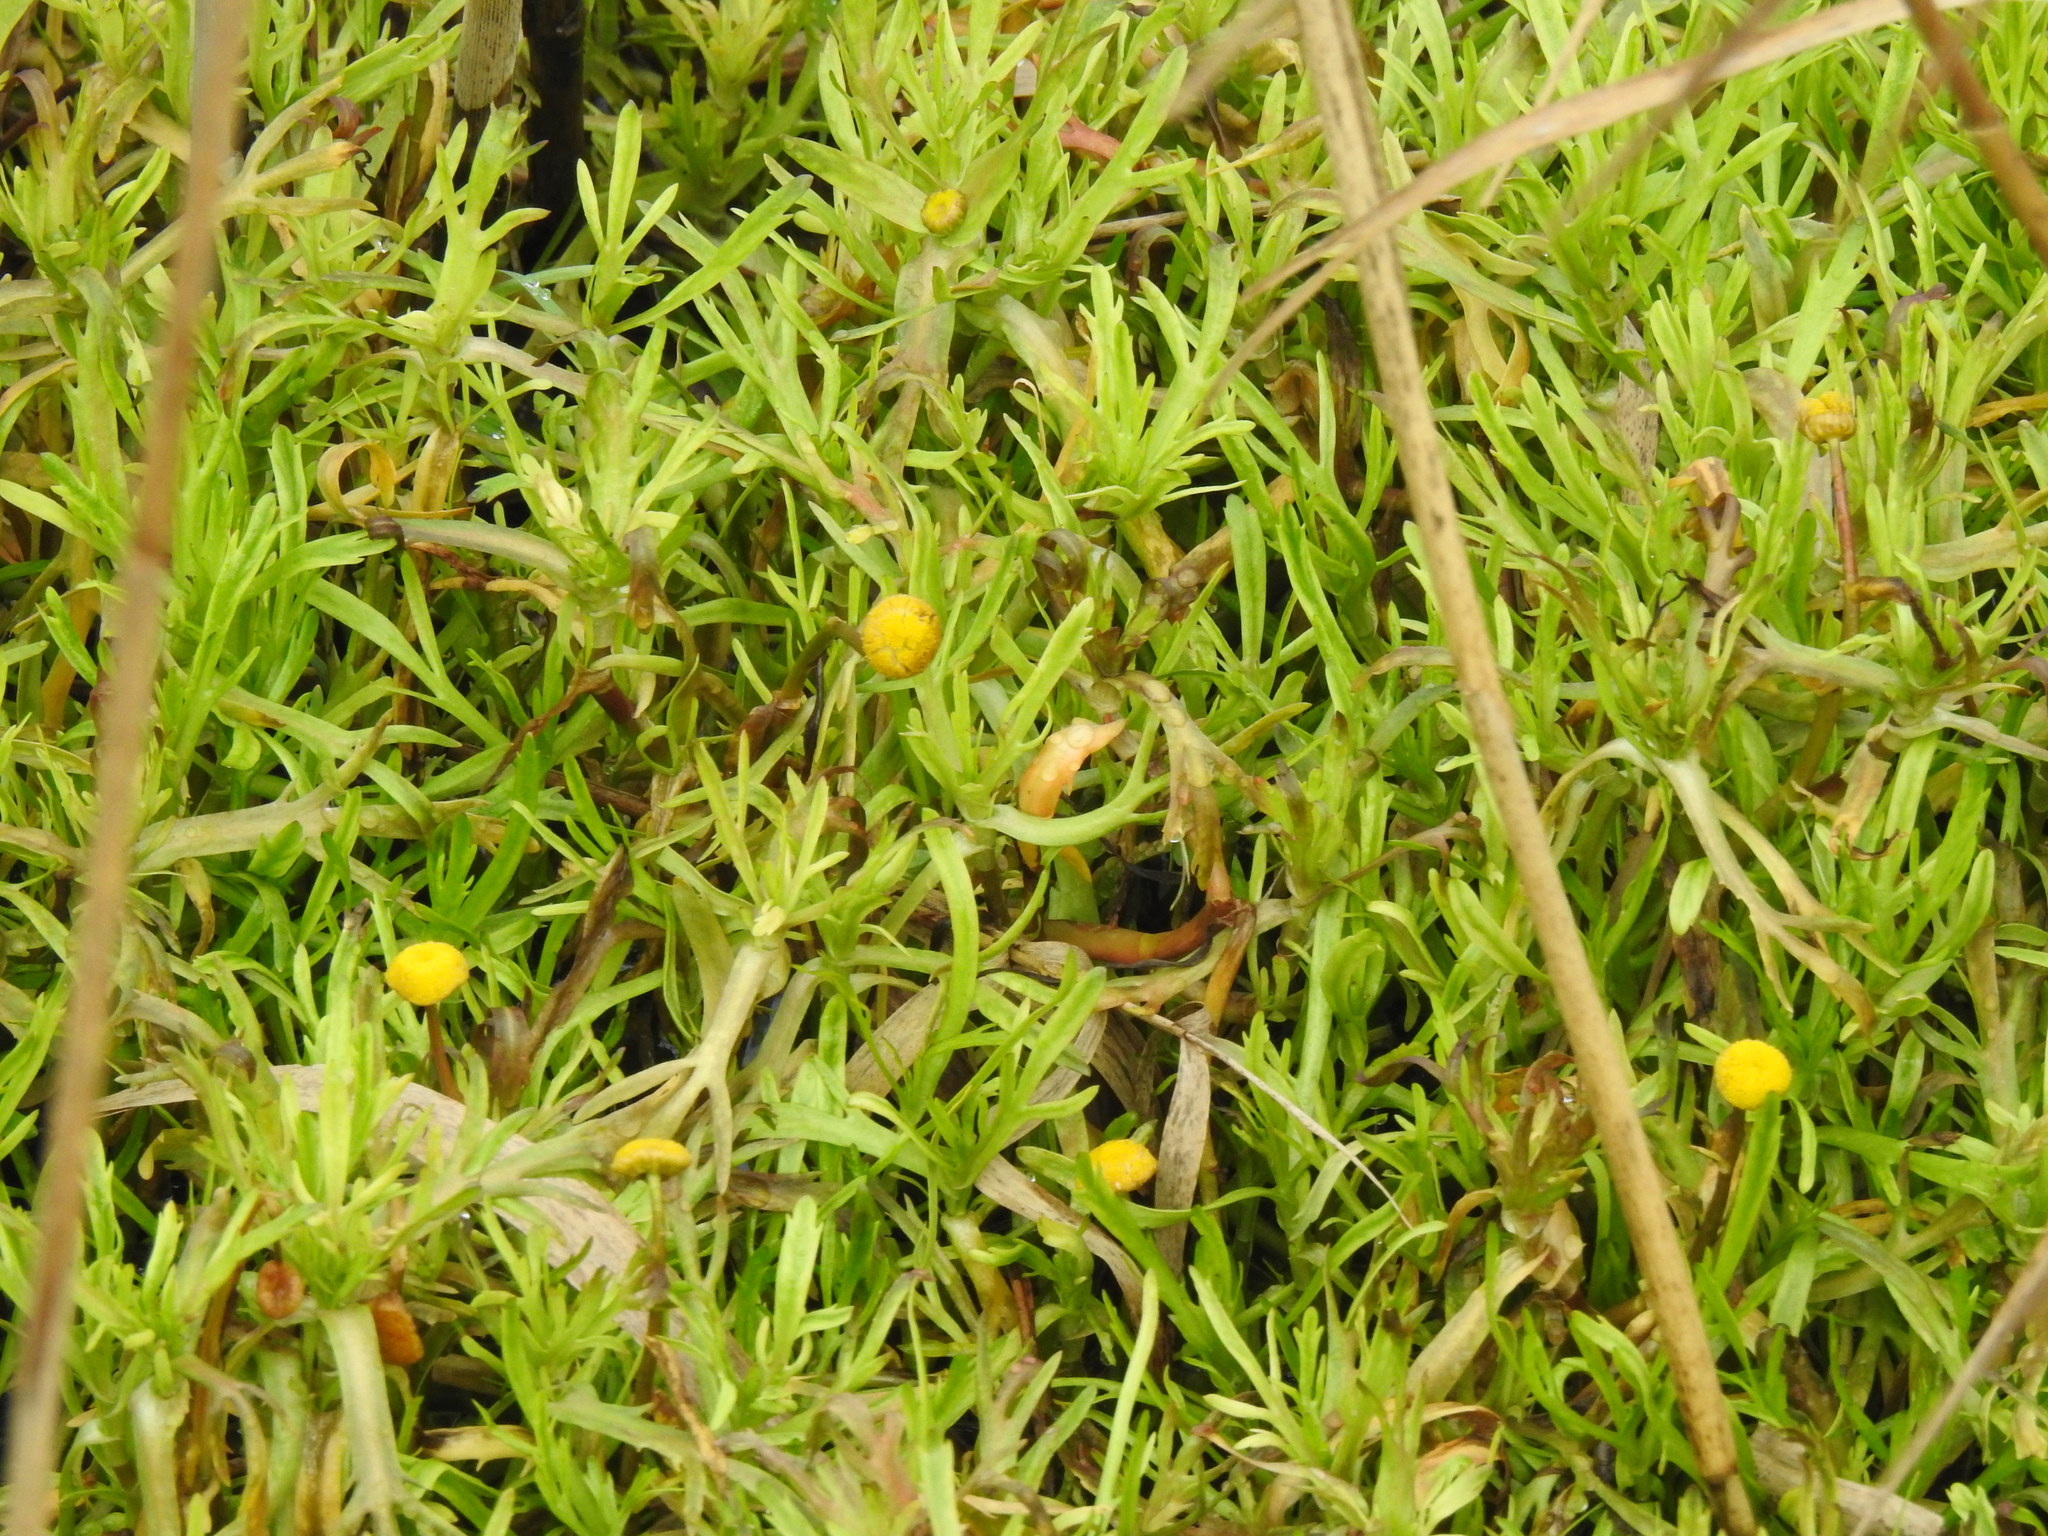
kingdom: Plantae
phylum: Tracheophyta
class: Magnoliopsida
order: Asterales
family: Asteraceae
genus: Cotula
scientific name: Cotula coronopifolia
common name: Buttonweed
